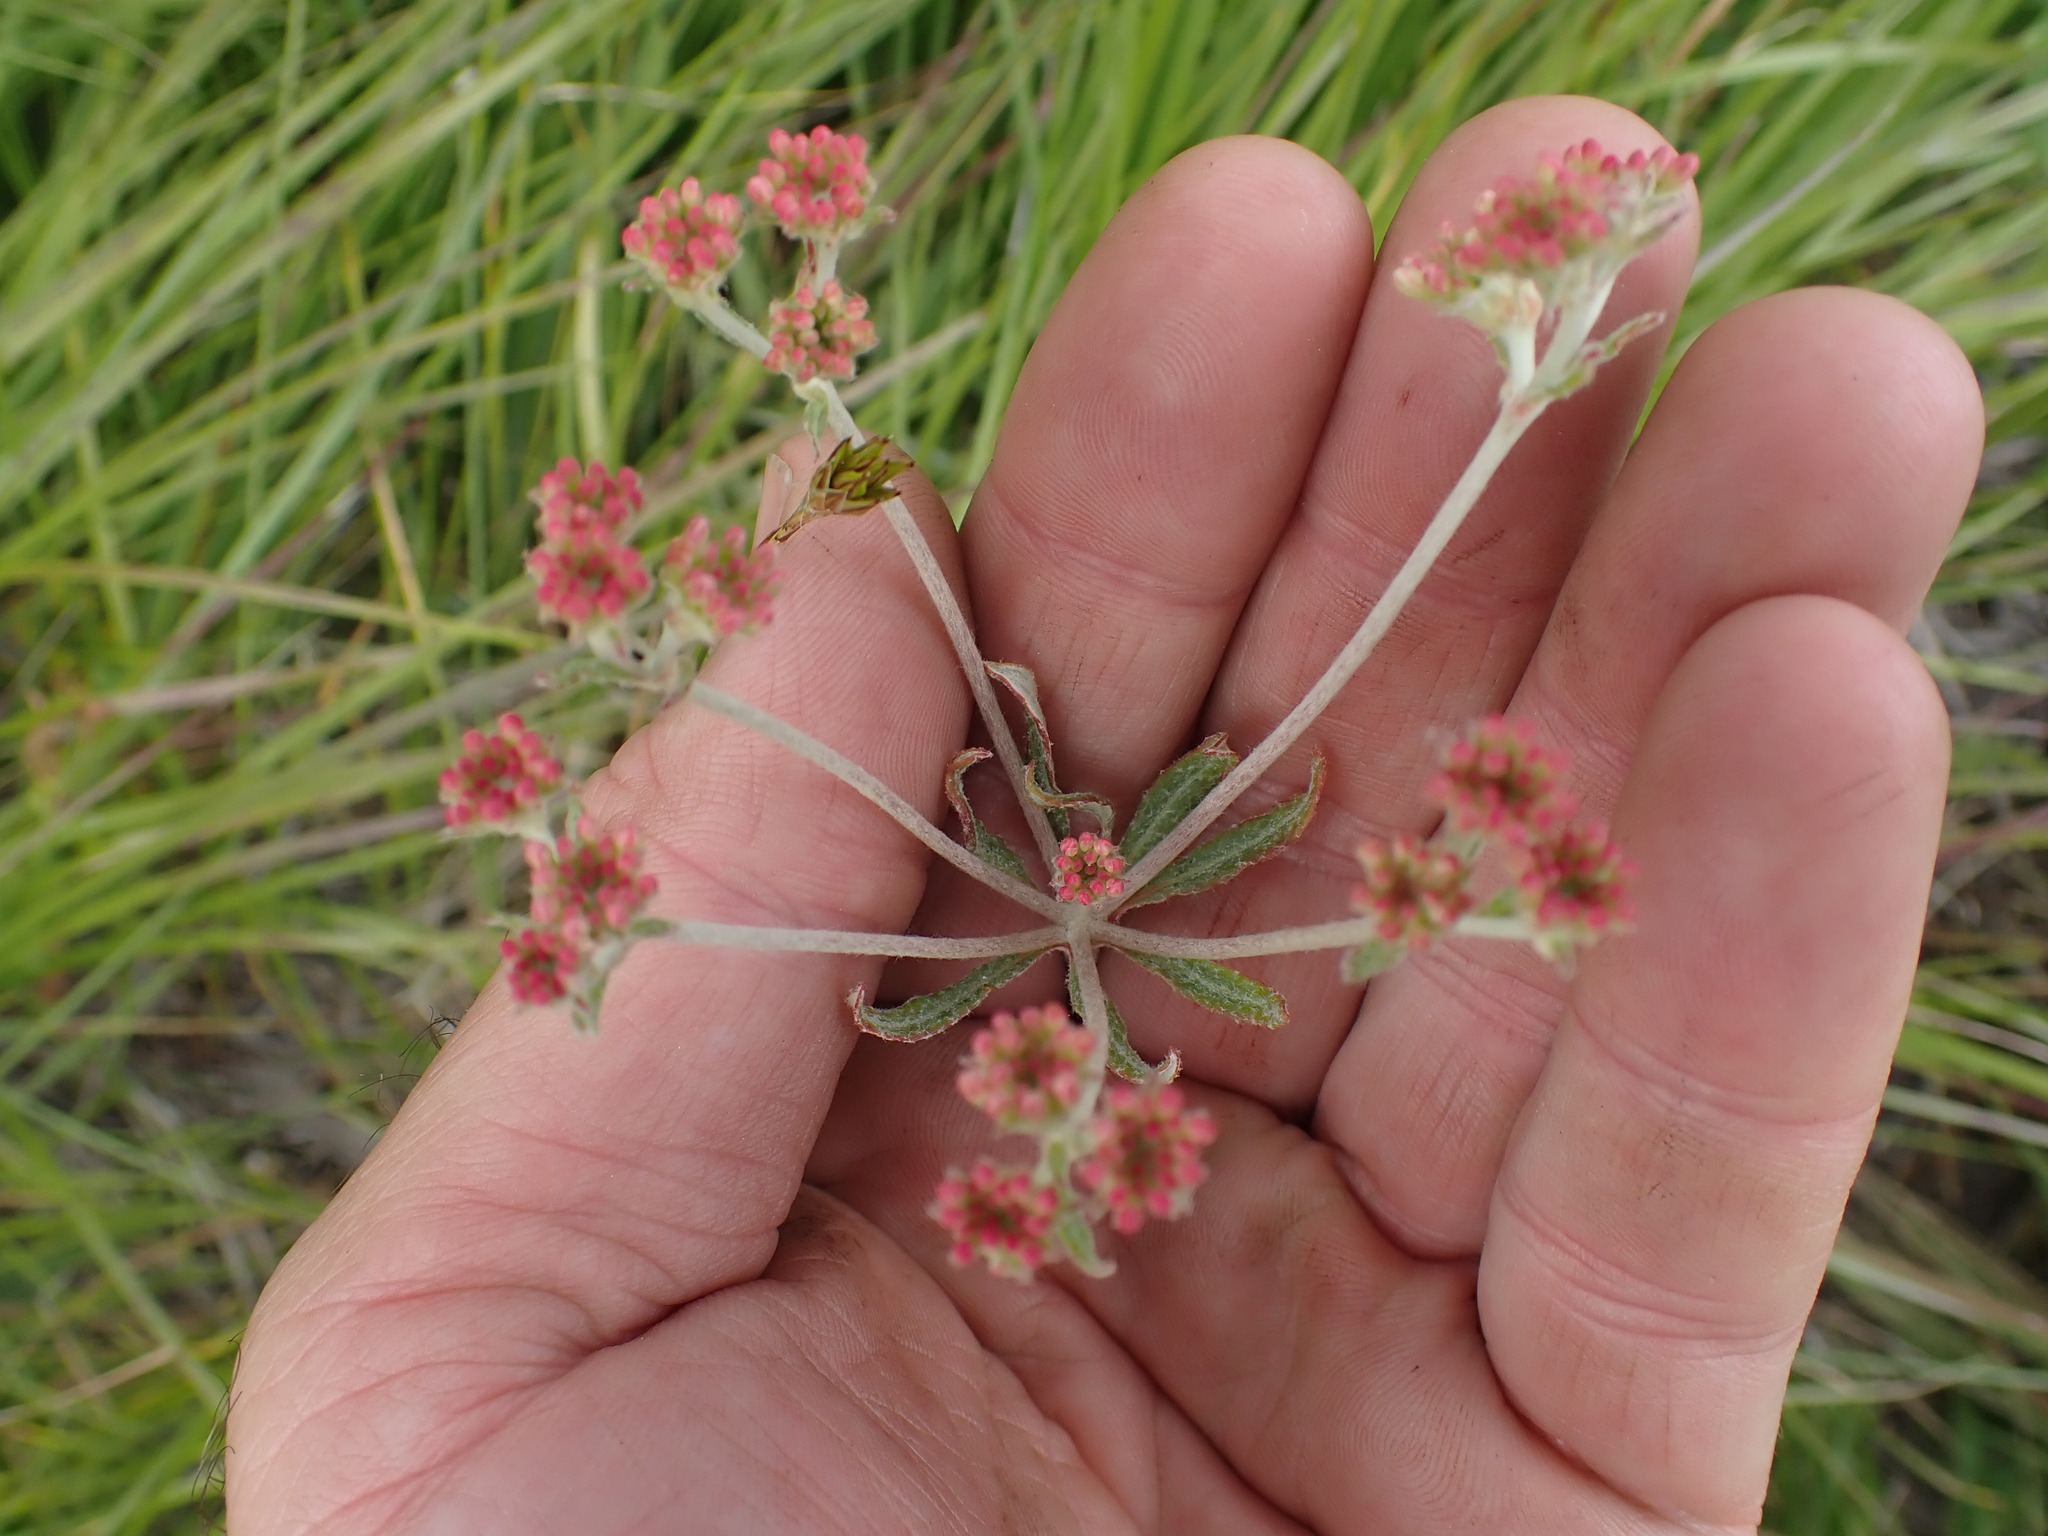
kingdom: Plantae
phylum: Tracheophyta
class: Magnoliopsida
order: Caryophyllales
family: Polygonaceae
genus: Eriogonum
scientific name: Eriogonum heracleoides
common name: Wyeth's buckwheat
